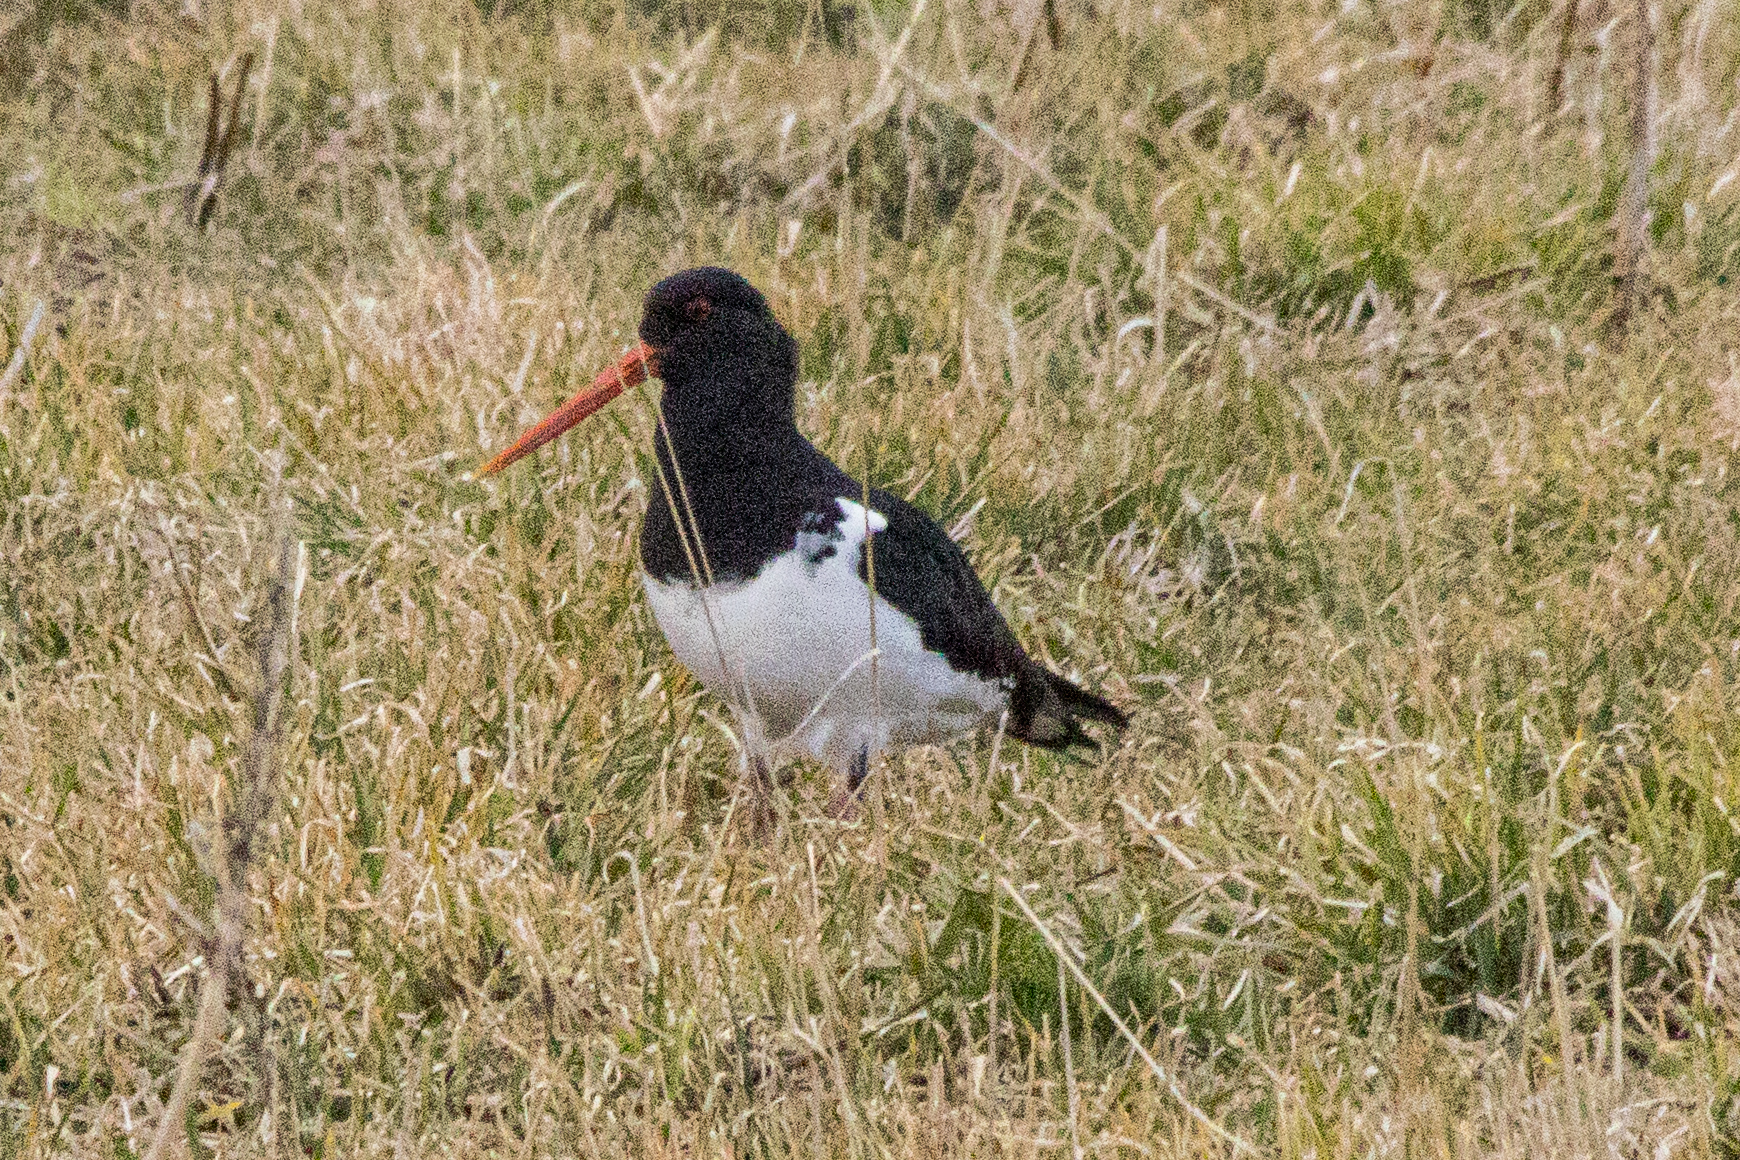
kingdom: Animalia
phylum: Chordata
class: Aves
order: Charadriiformes
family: Haematopodidae
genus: Haematopus
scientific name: Haematopus finschi
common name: South island oystercatcher
